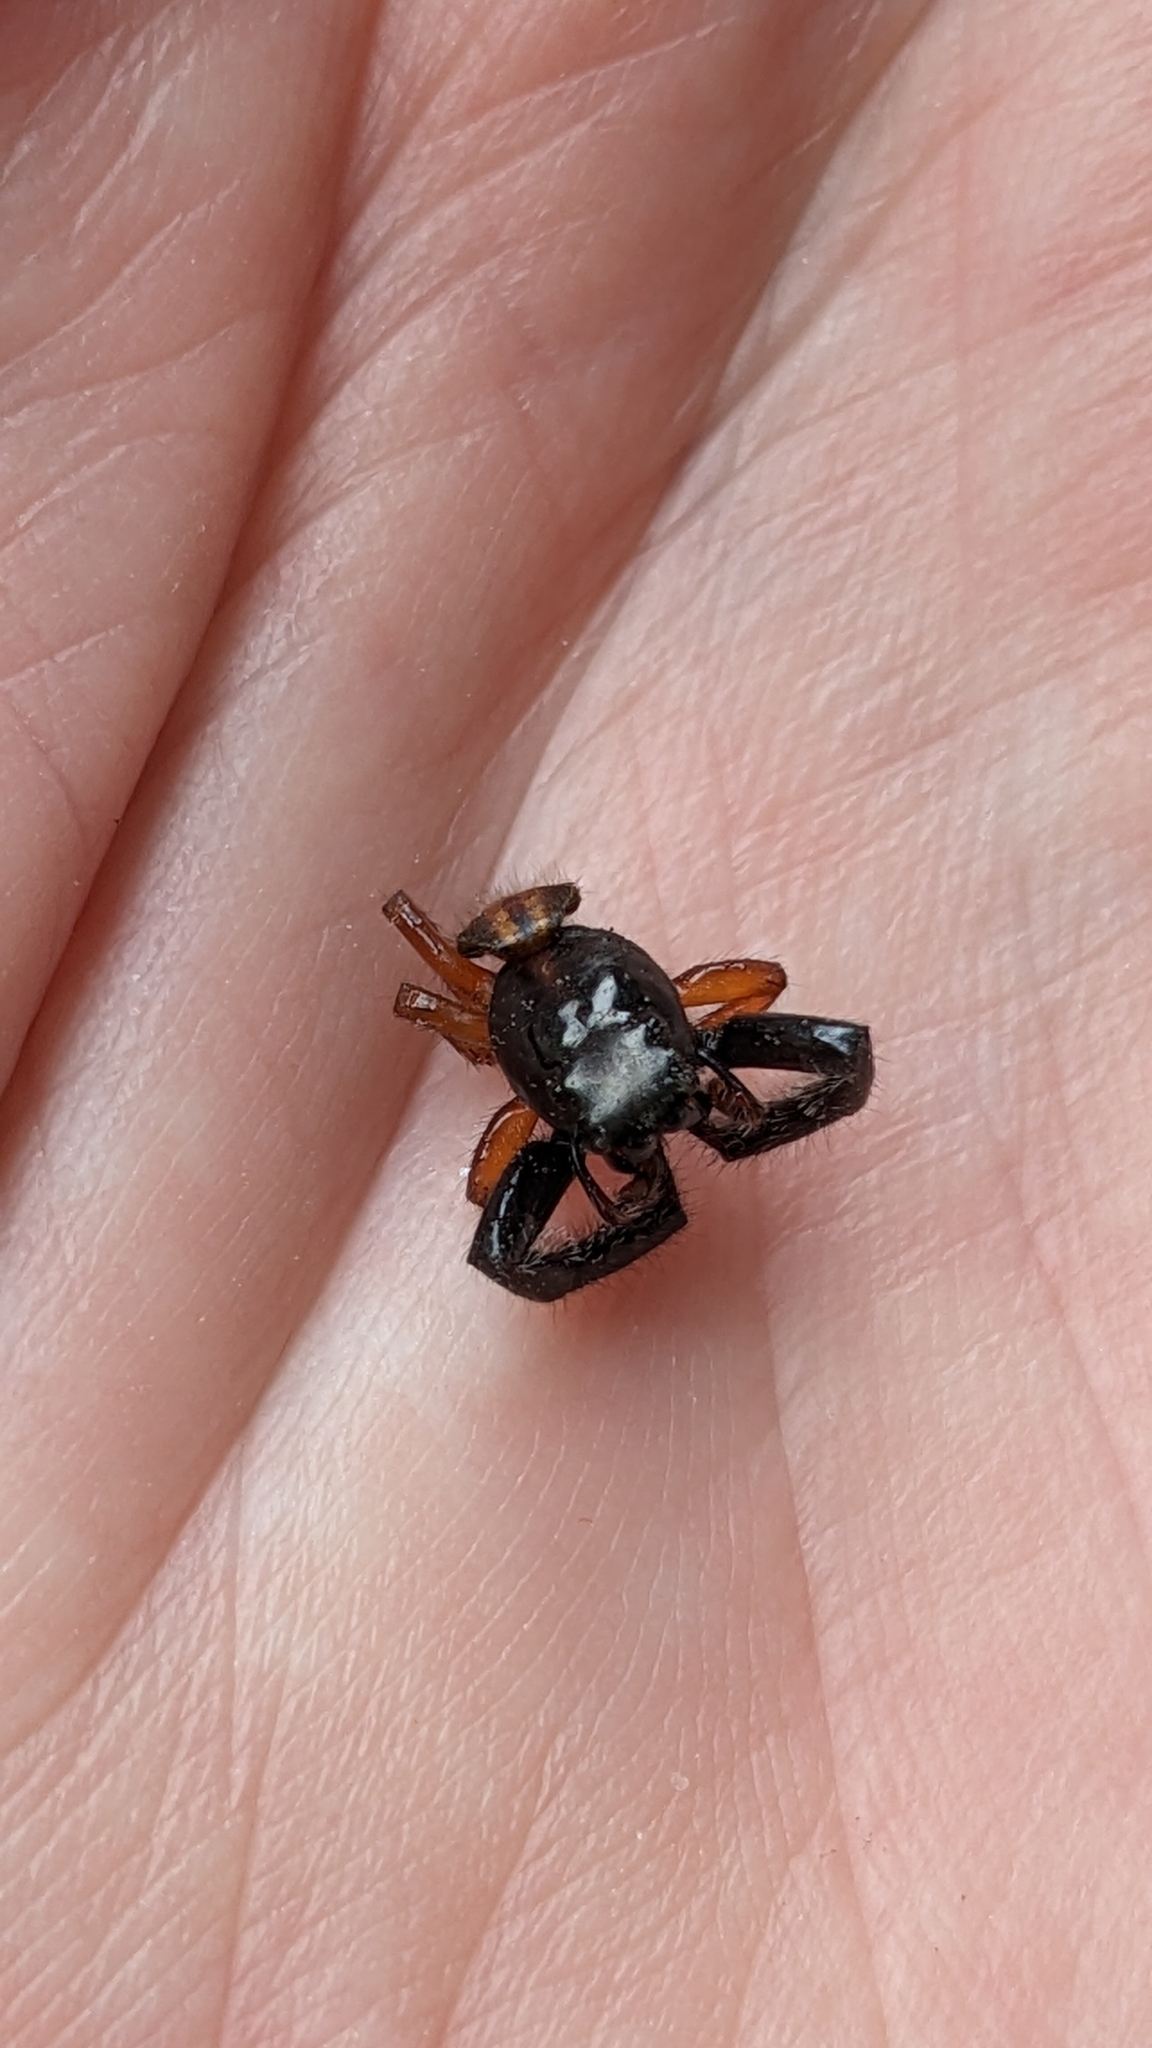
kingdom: Animalia
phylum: Arthropoda
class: Arachnida
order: Araneae
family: Salticidae
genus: Trite
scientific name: Trite planiceps
